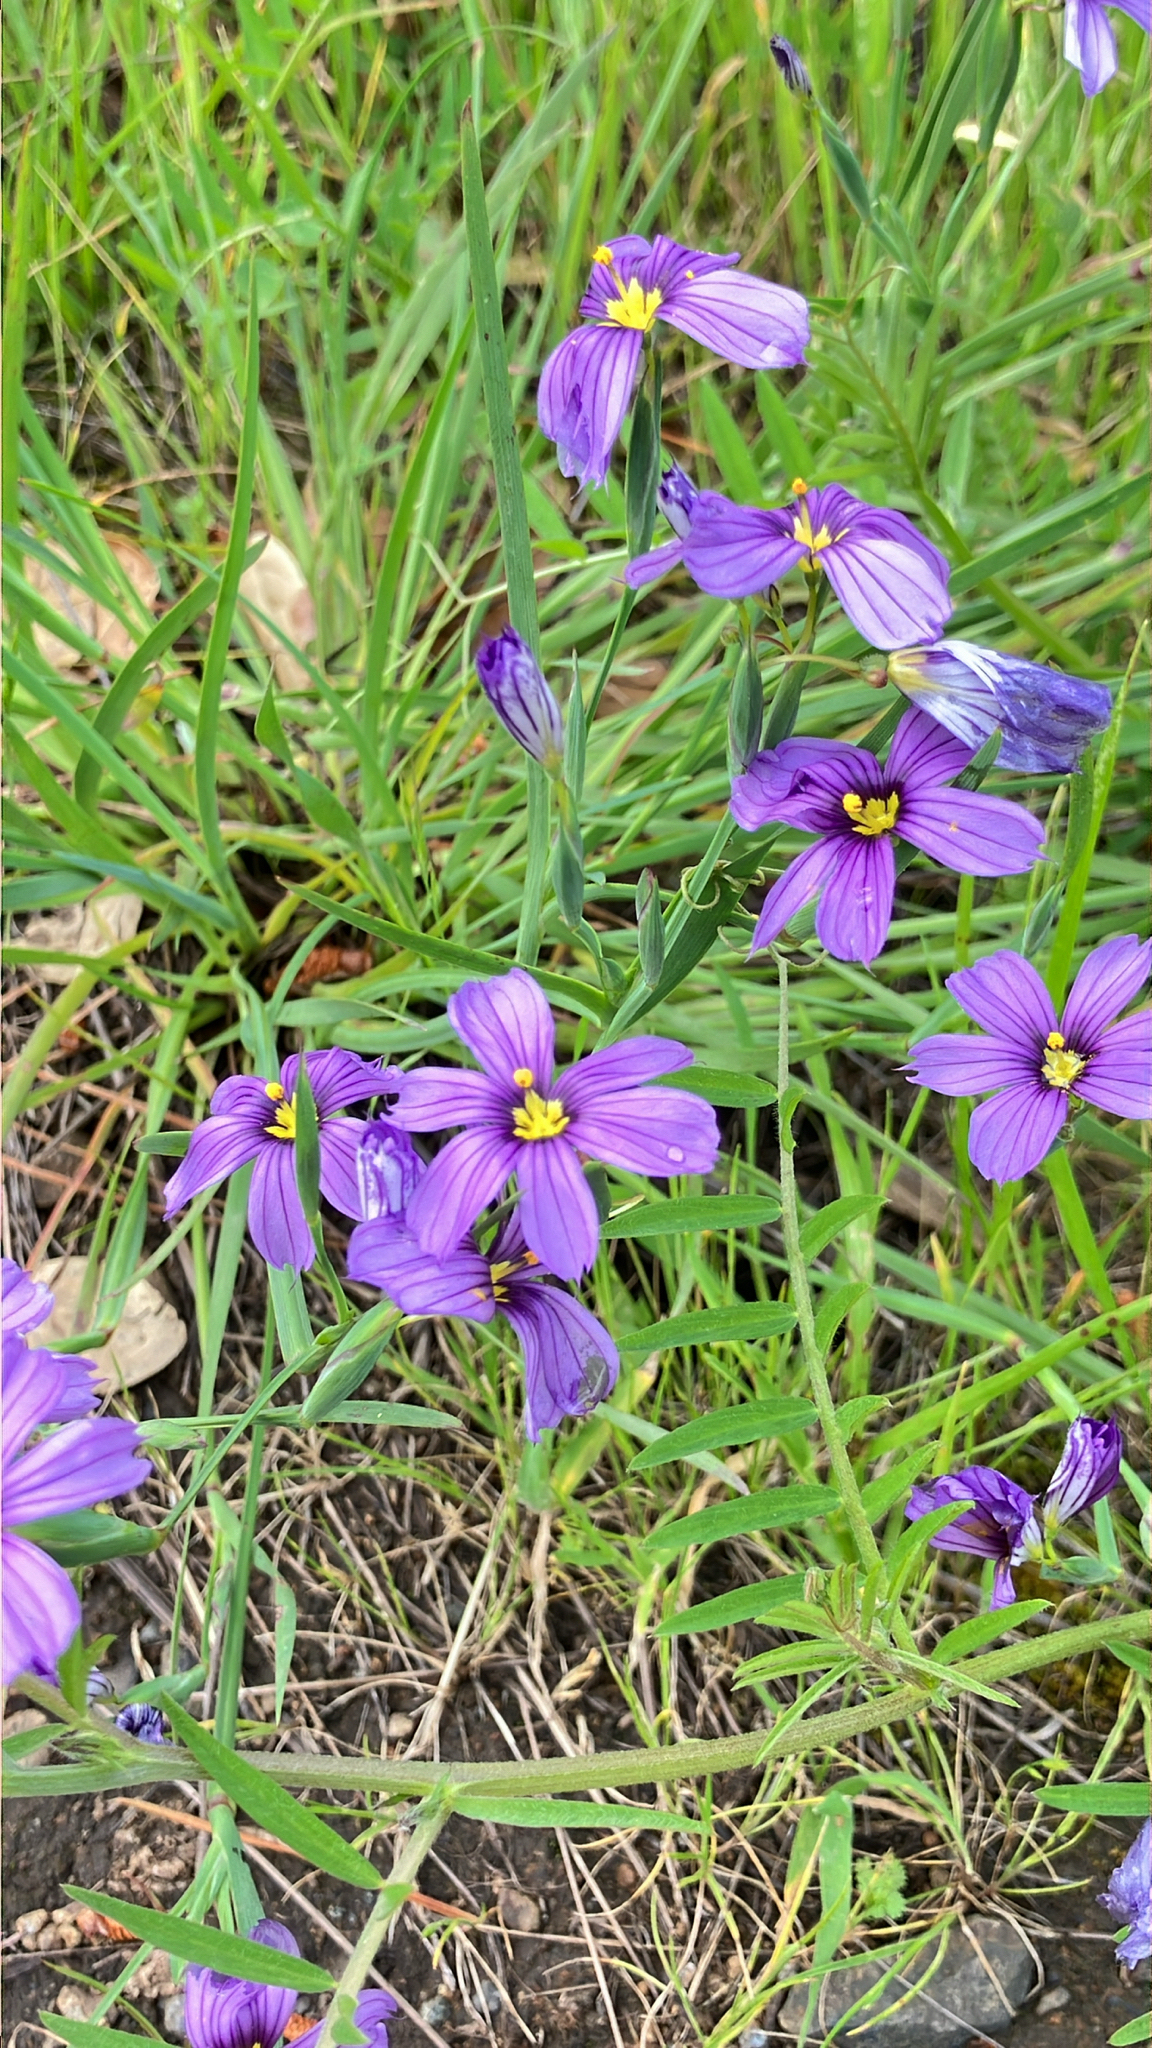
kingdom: Plantae
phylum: Tracheophyta
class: Liliopsida
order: Asparagales
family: Iridaceae
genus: Sisyrinchium
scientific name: Sisyrinchium bellum
